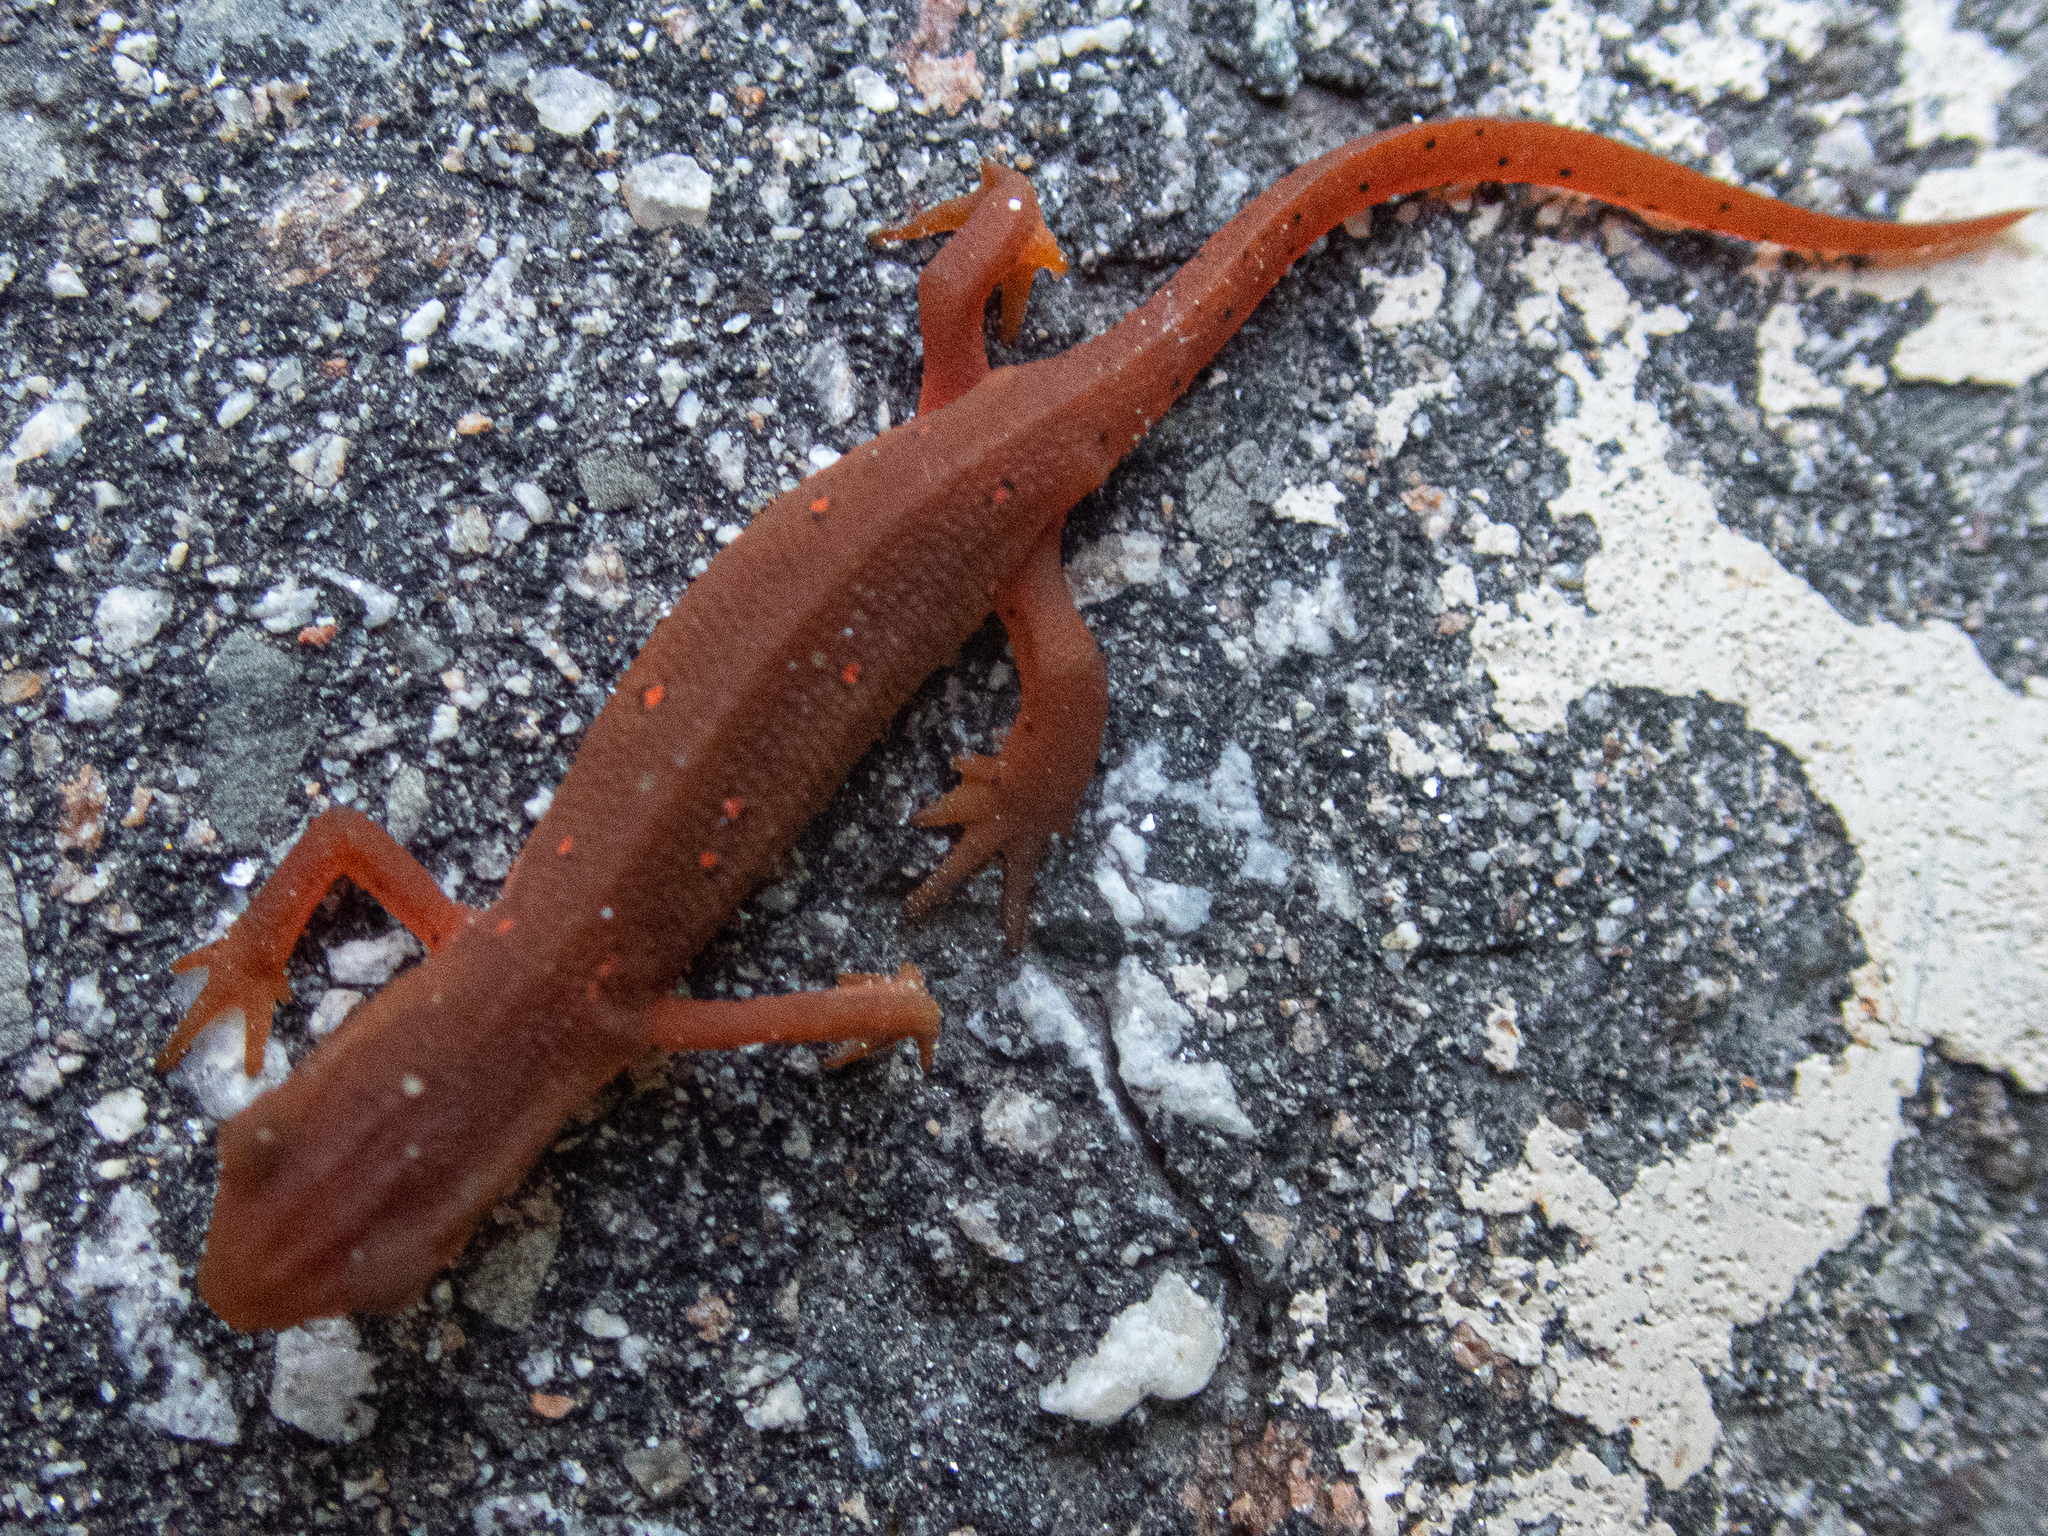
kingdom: Animalia
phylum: Chordata
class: Amphibia
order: Caudata
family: Salamandridae
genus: Notophthalmus
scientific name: Notophthalmus viridescens
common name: Eastern newt
